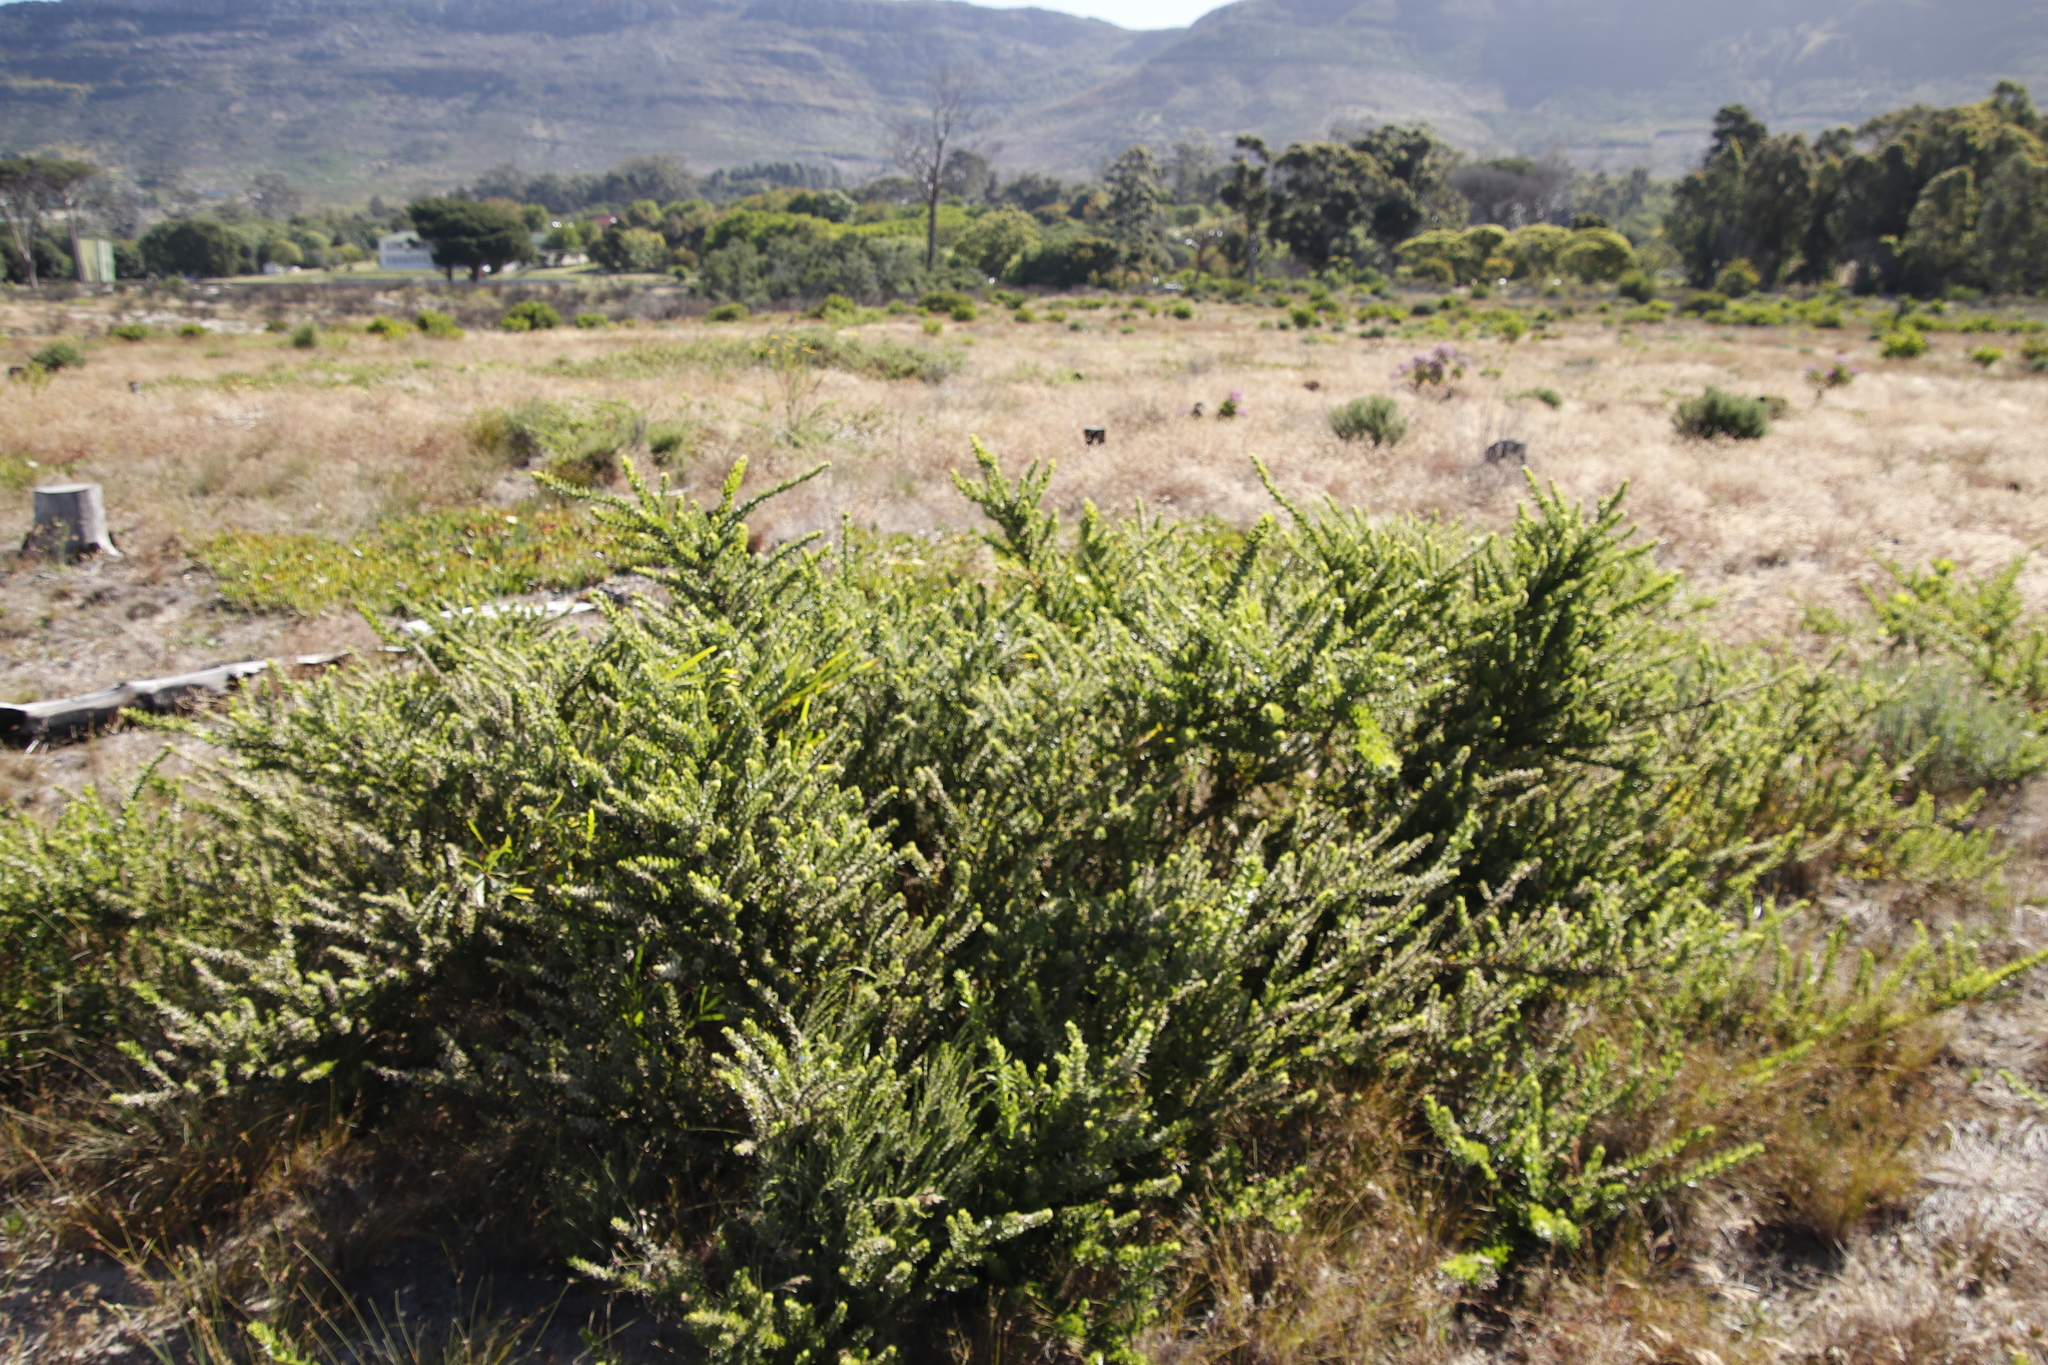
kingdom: Plantae
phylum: Tracheophyta
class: Magnoliopsida
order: Lamiales
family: Scrophulariaceae
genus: Oftia
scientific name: Oftia africana
